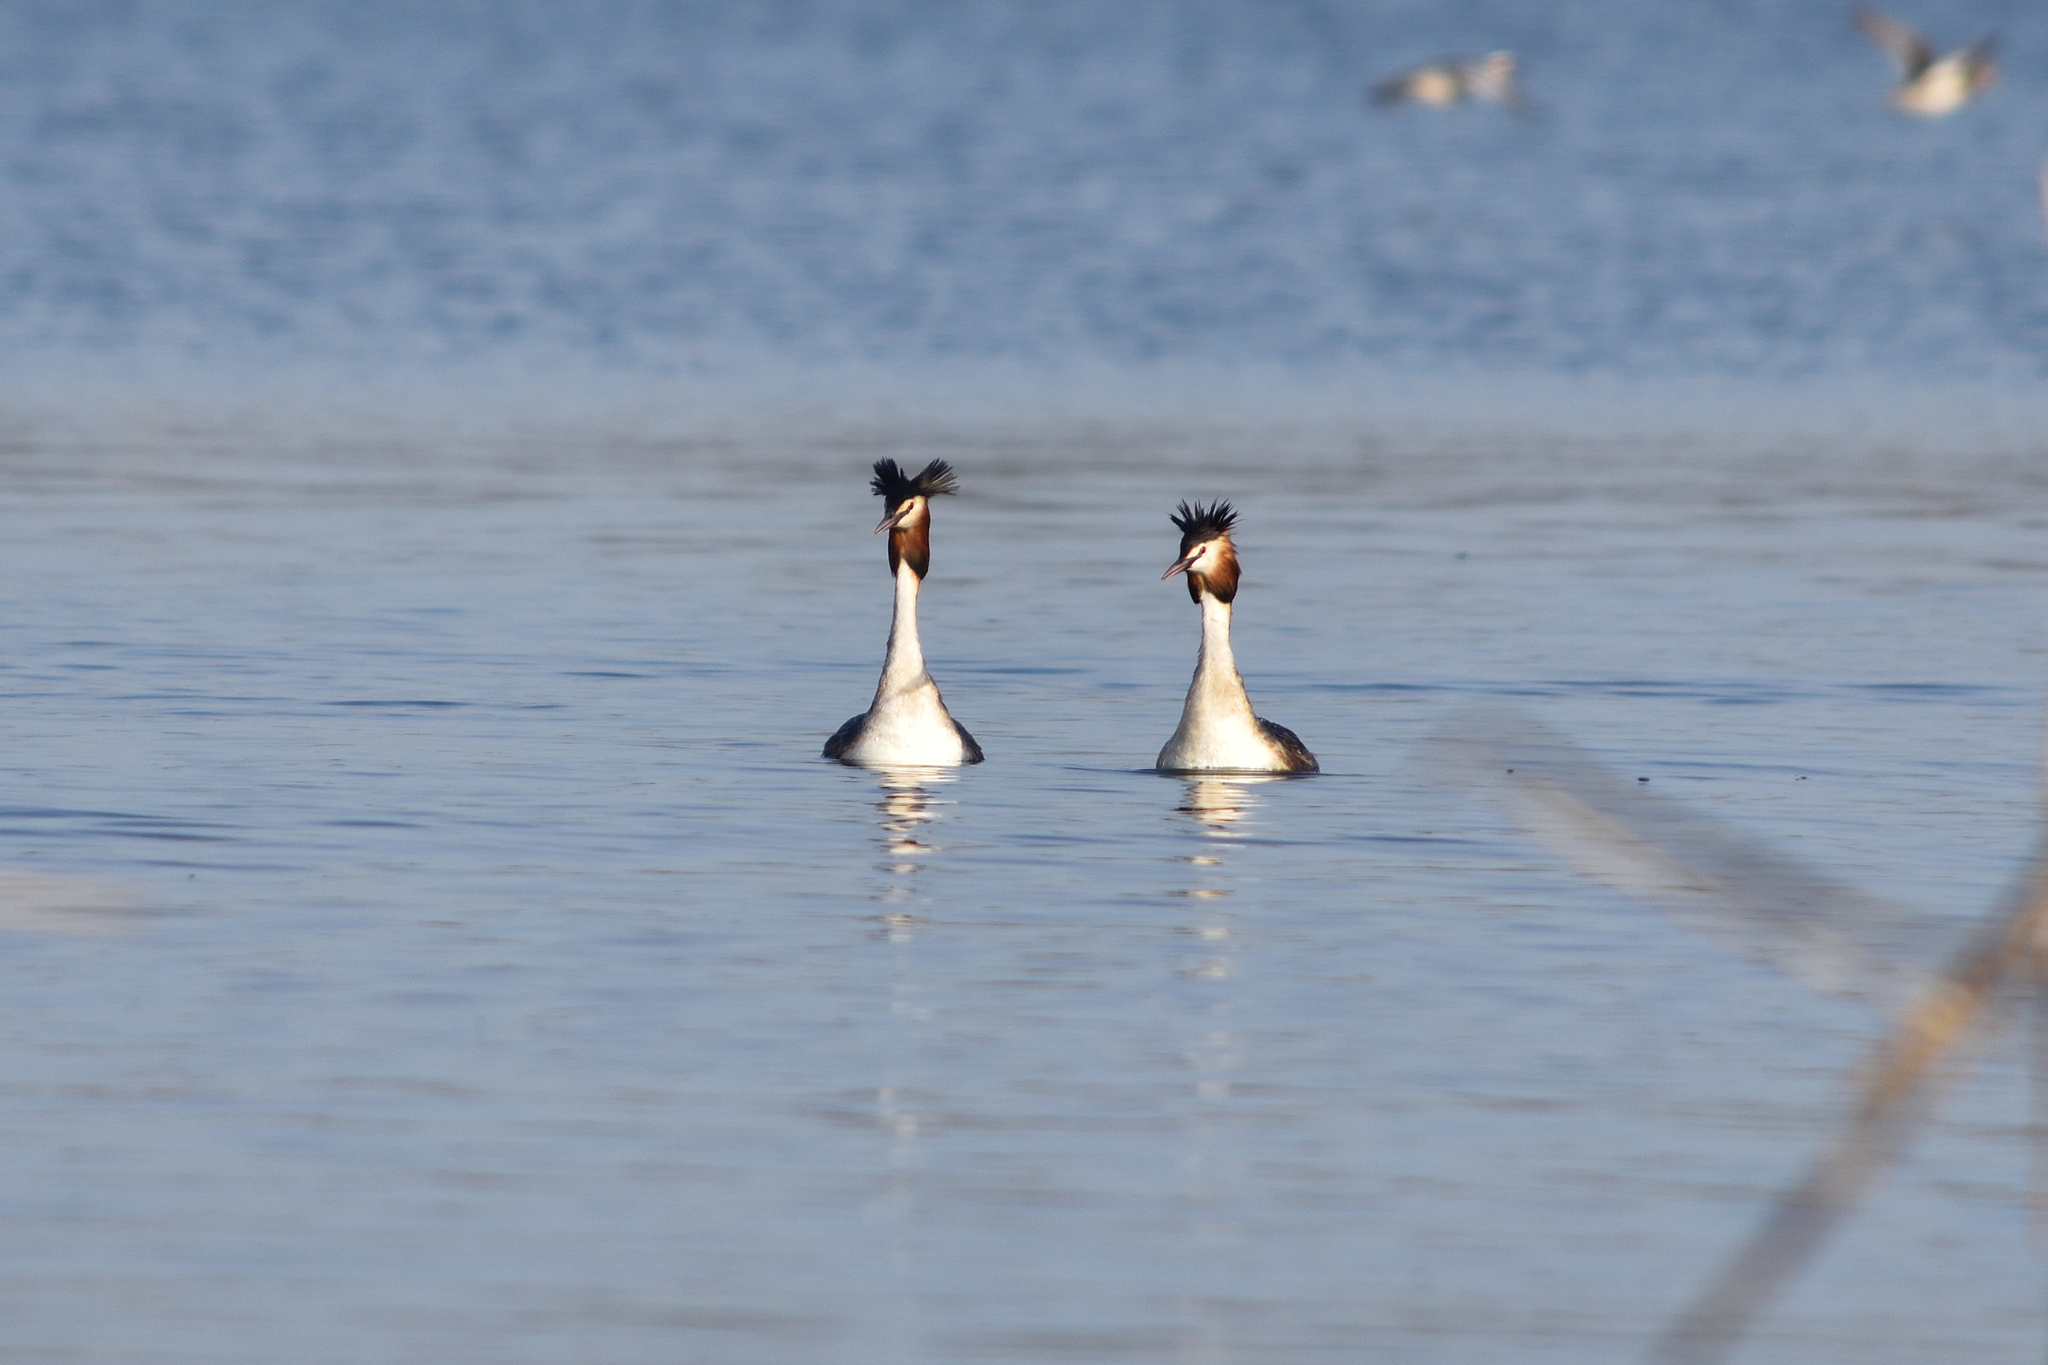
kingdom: Animalia
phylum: Chordata
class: Aves
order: Podicipediformes
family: Podicipedidae
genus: Podiceps
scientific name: Podiceps cristatus
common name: Great crested grebe
